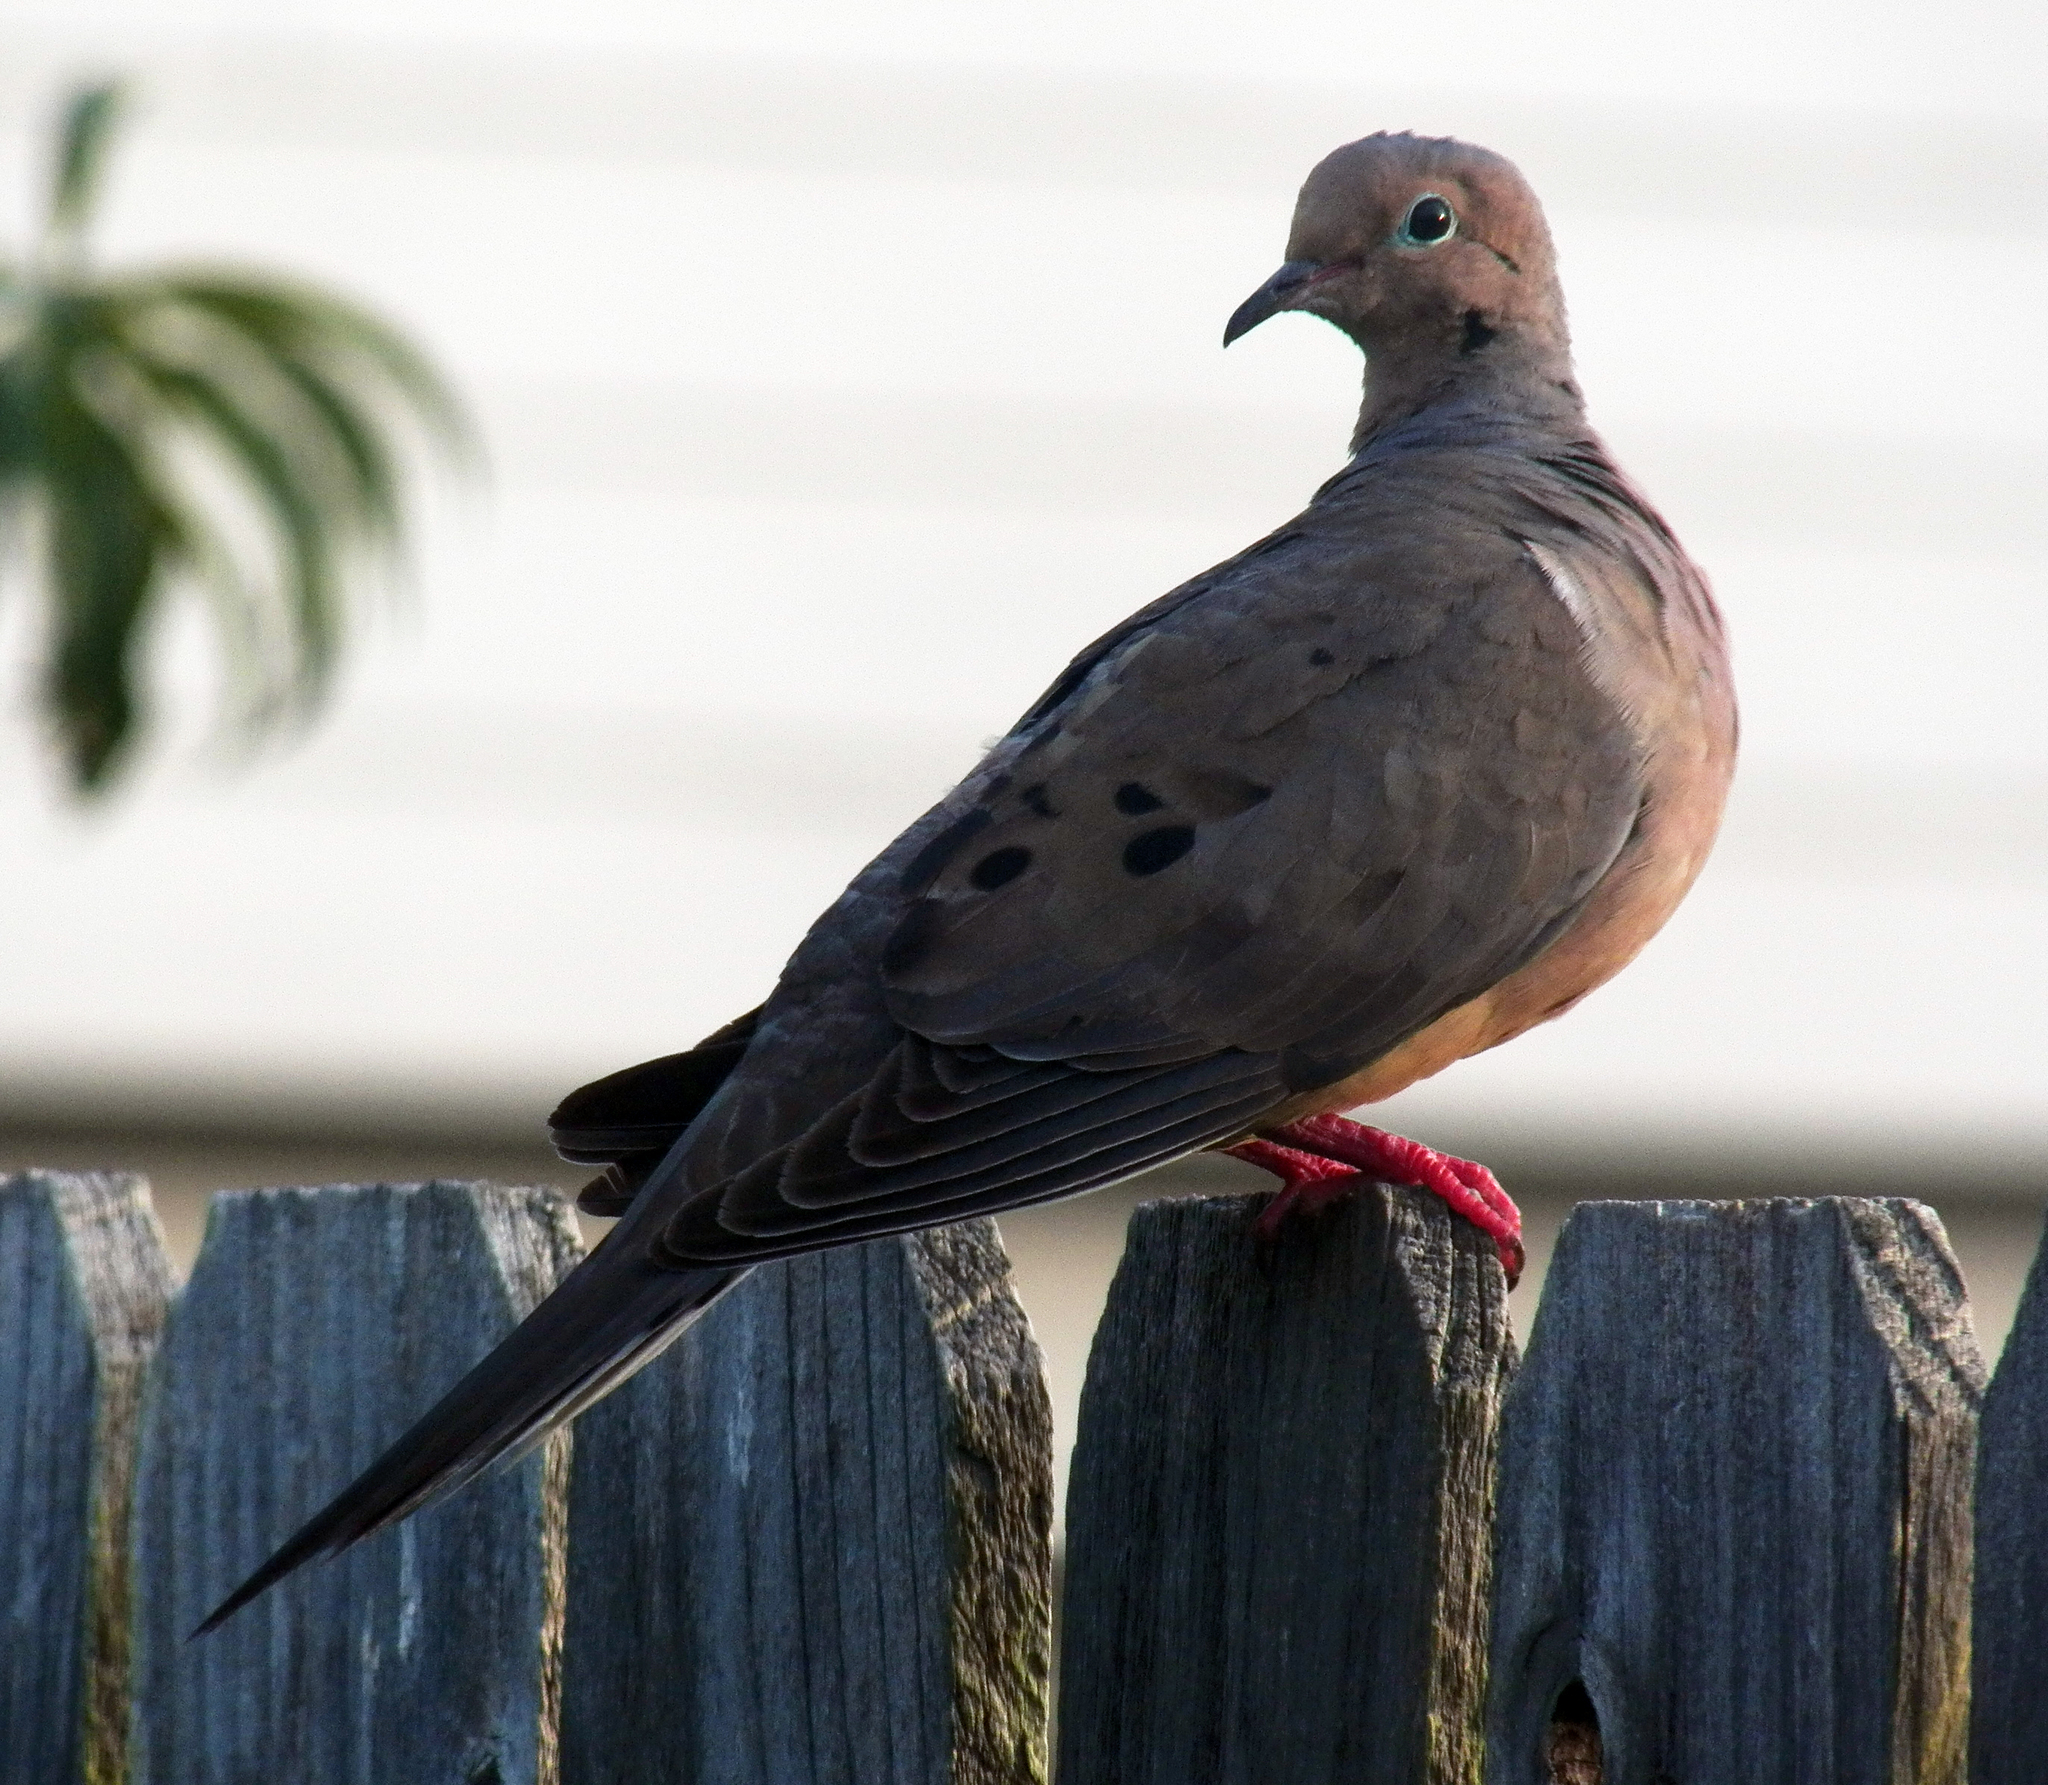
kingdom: Animalia
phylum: Chordata
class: Aves
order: Columbiformes
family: Columbidae
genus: Zenaida
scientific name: Zenaida macroura
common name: Mourning dove
